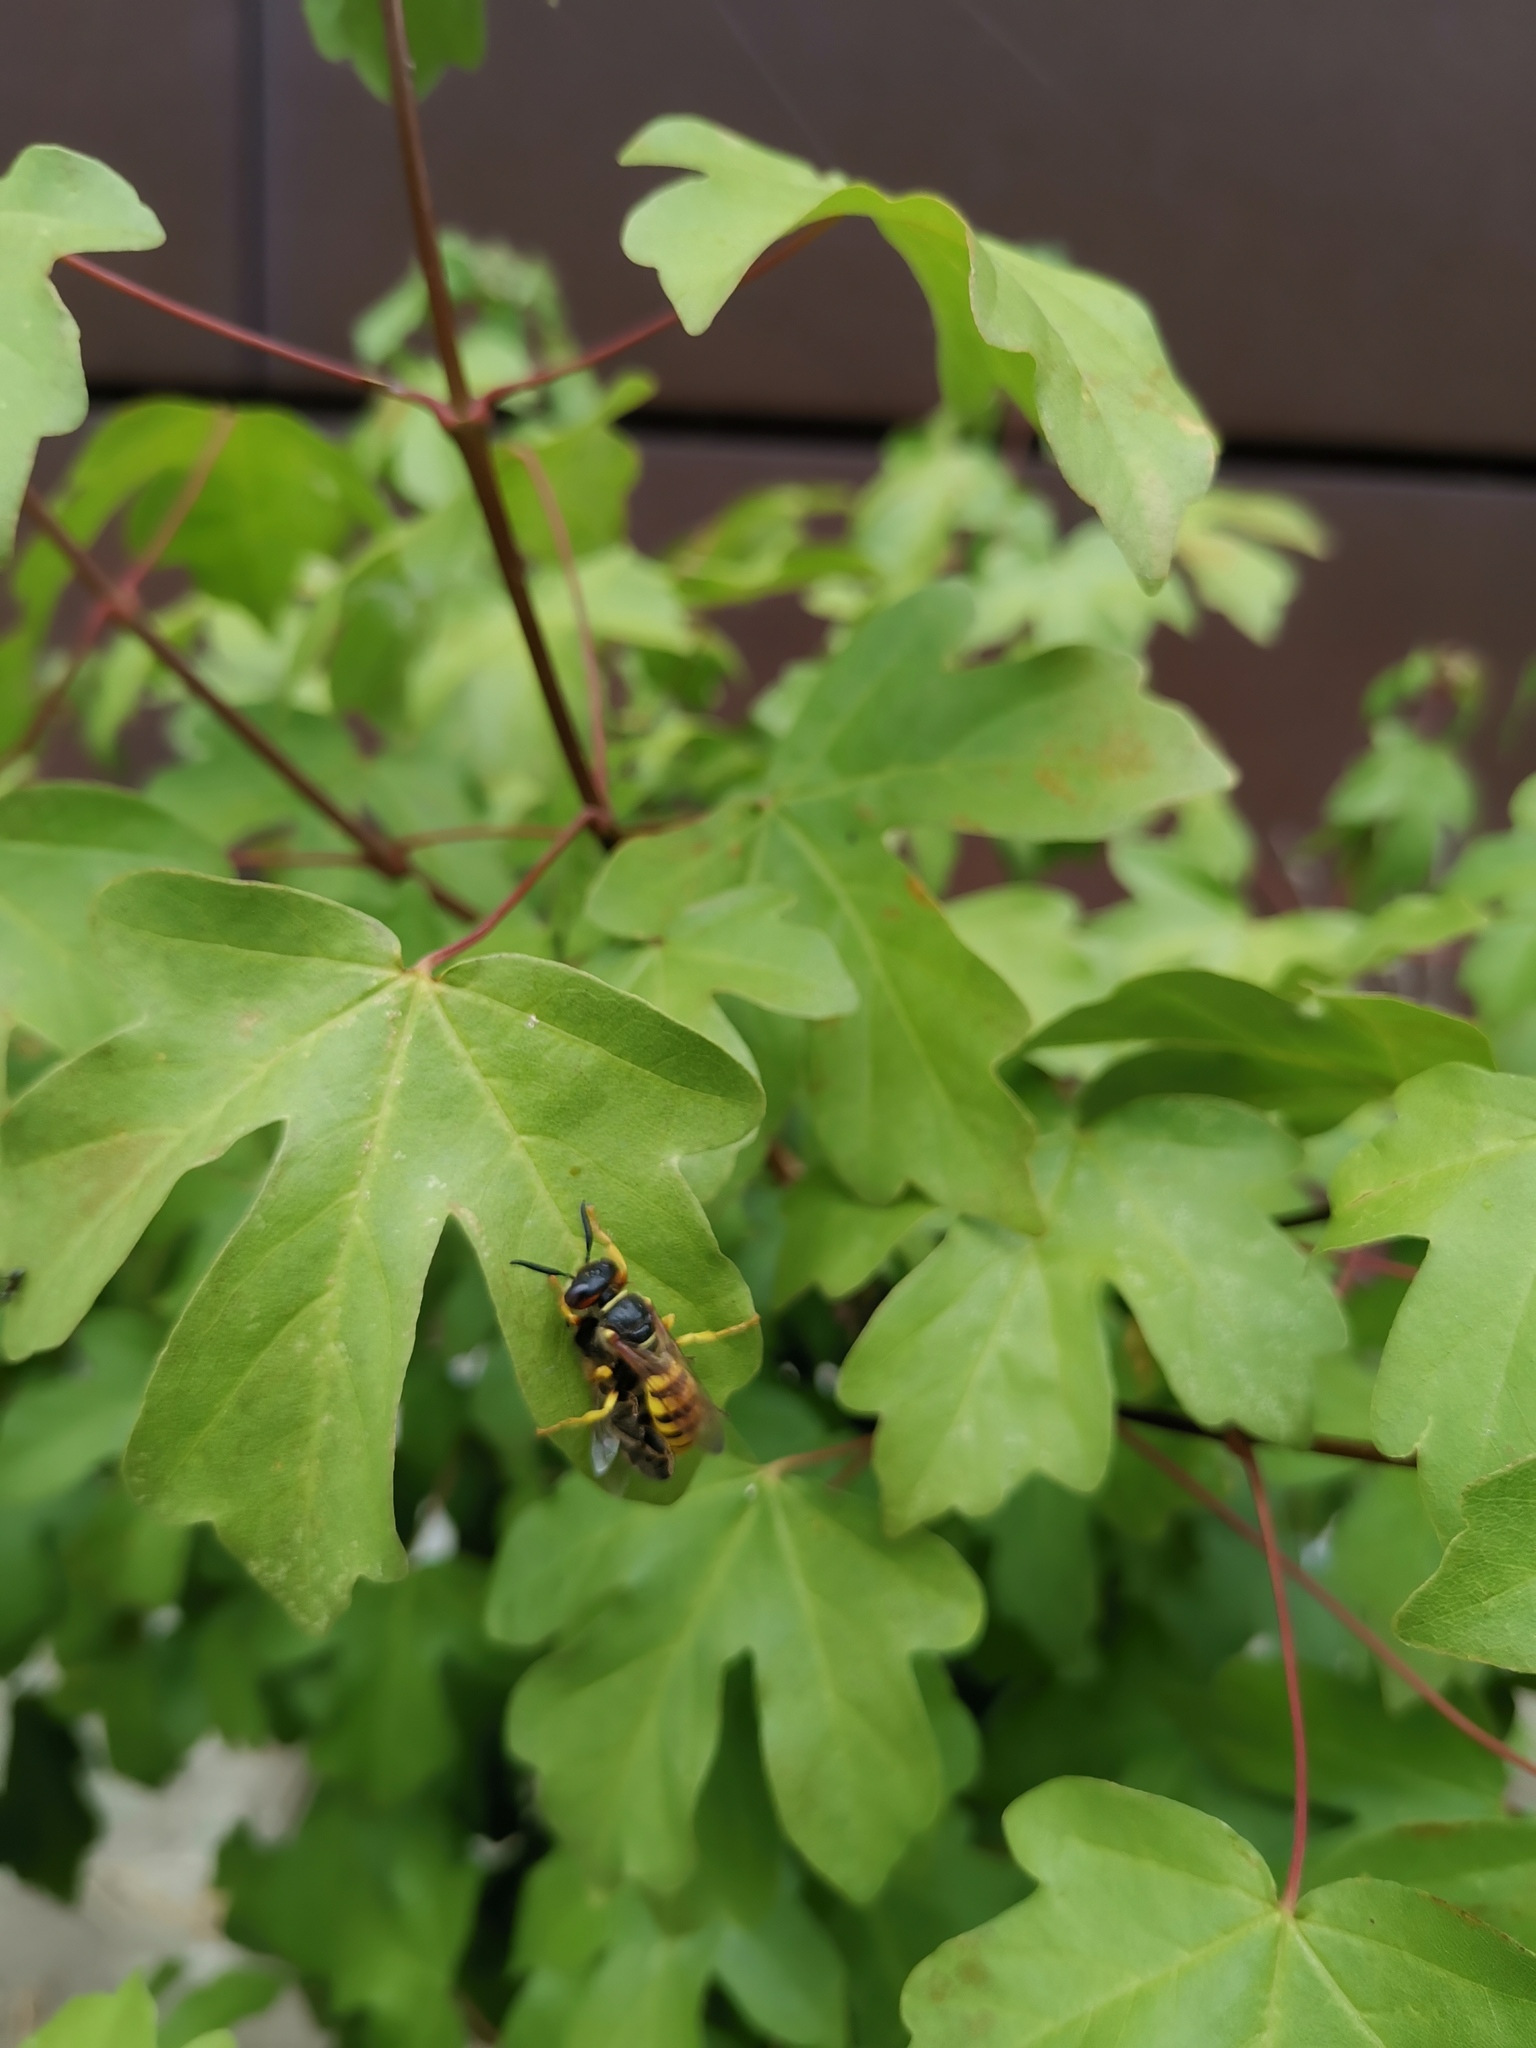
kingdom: Animalia
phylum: Arthropoda
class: Insecta
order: Hymenoptera
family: Crabronidae
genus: Philanthus
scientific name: Philanthus triangulum
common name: Bee wolf
